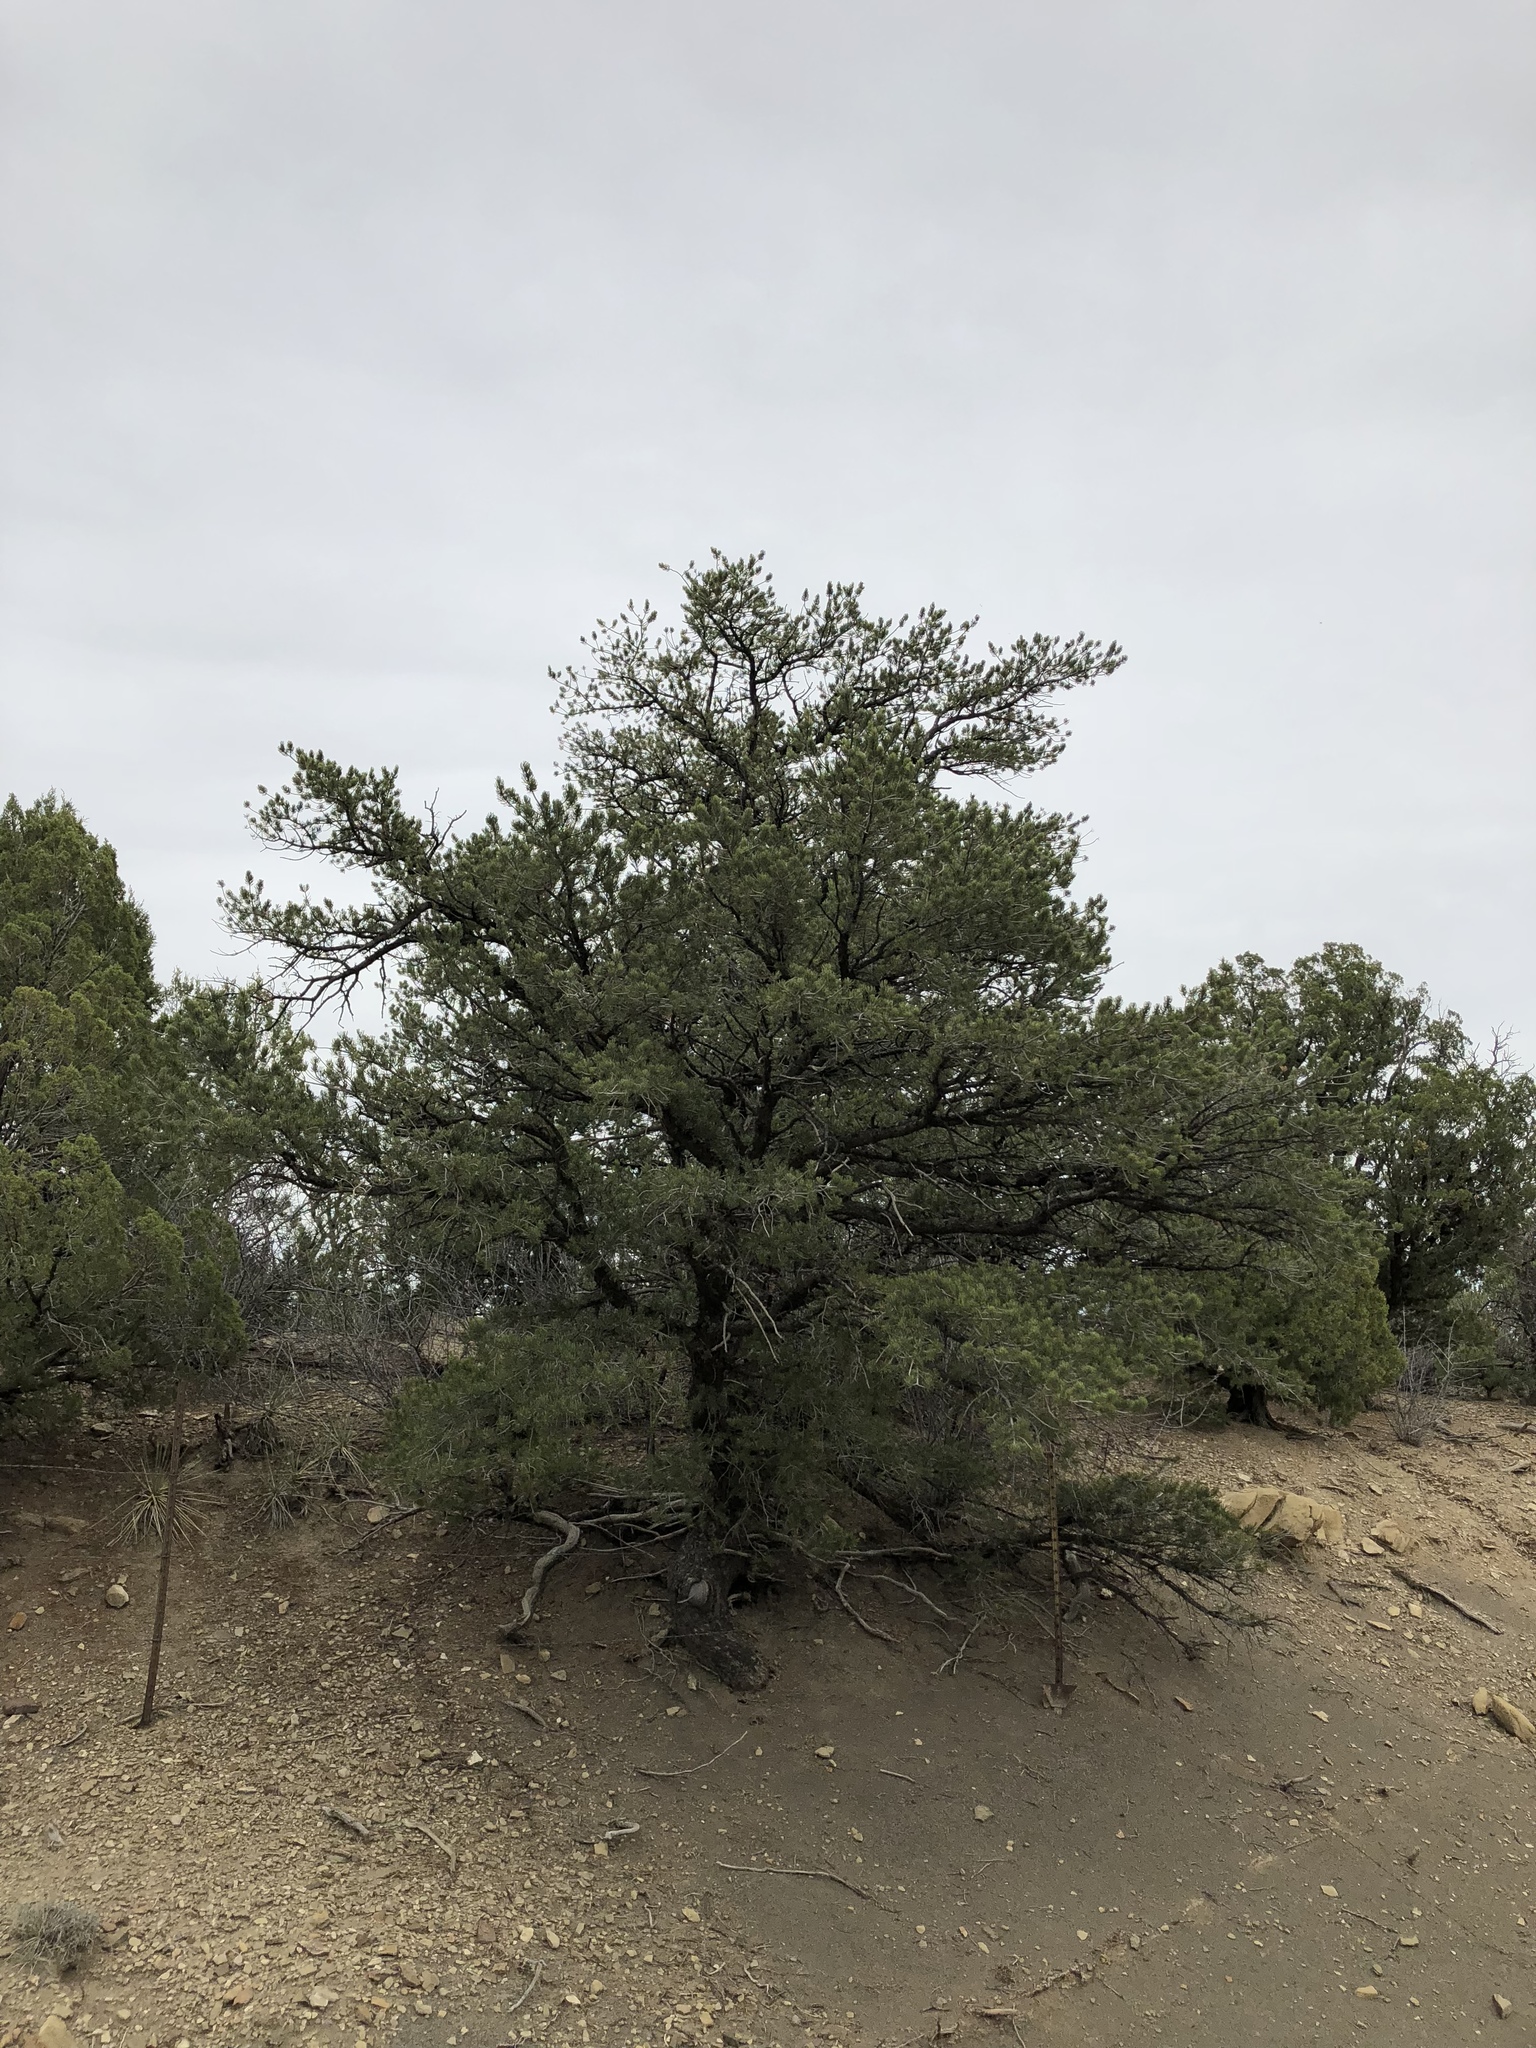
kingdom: Plantae
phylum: Tracheophyta
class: Pinopsida
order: Pinales
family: Pinaceae
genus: Pinus
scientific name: Pinus edulis
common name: Colorado pinyon
